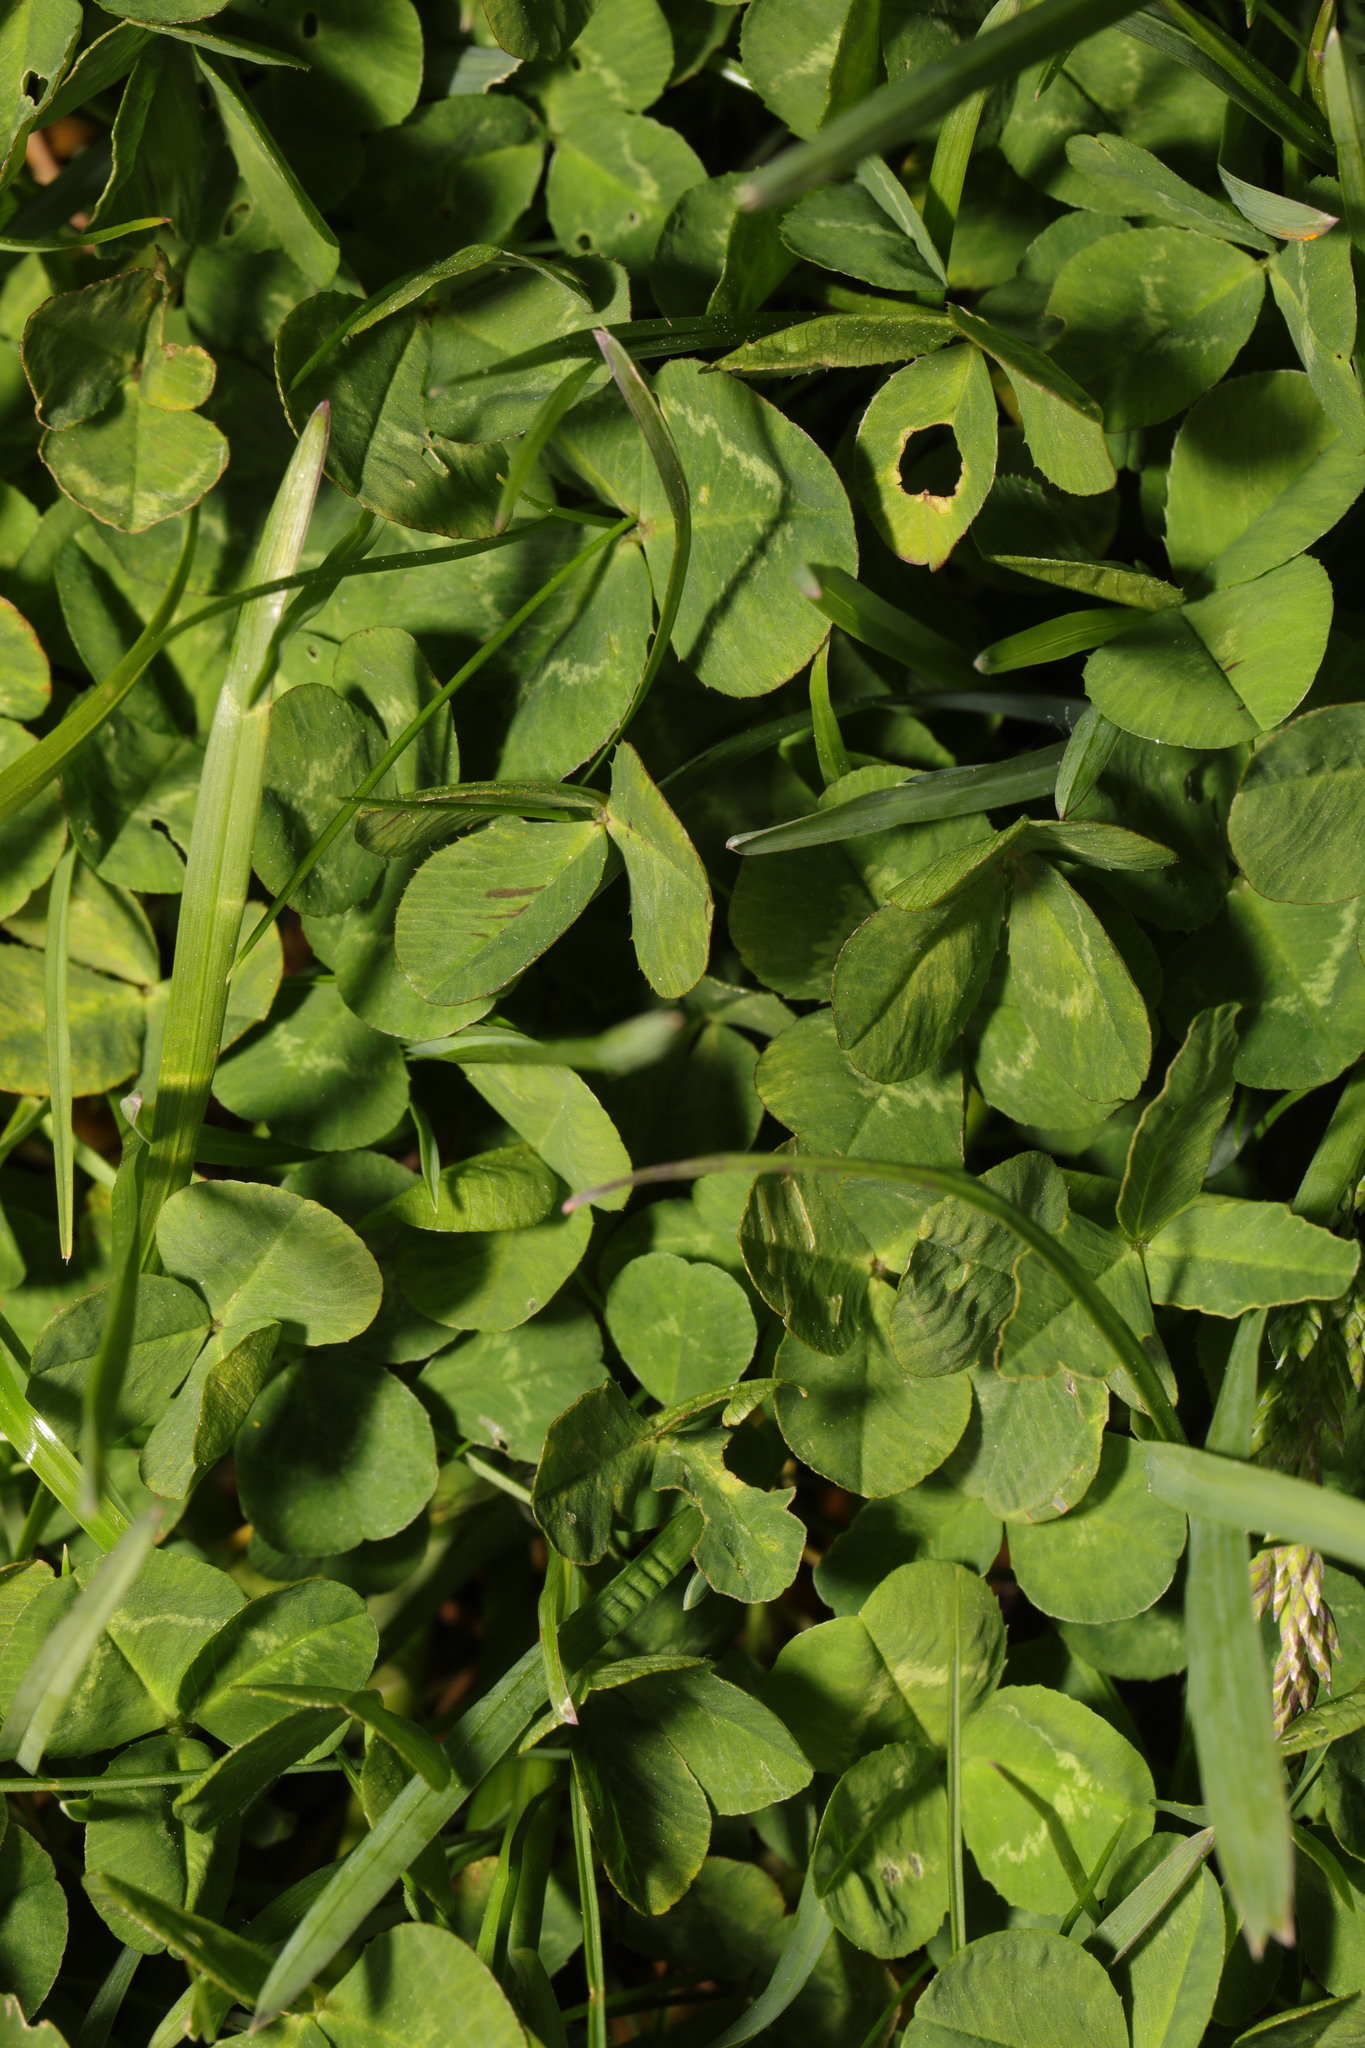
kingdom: Plantae
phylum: Tracheophyta
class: Magnoliopsida
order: Fabales
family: Fabaceae
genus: Trifolium
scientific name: Trifolium repens
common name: White clover
